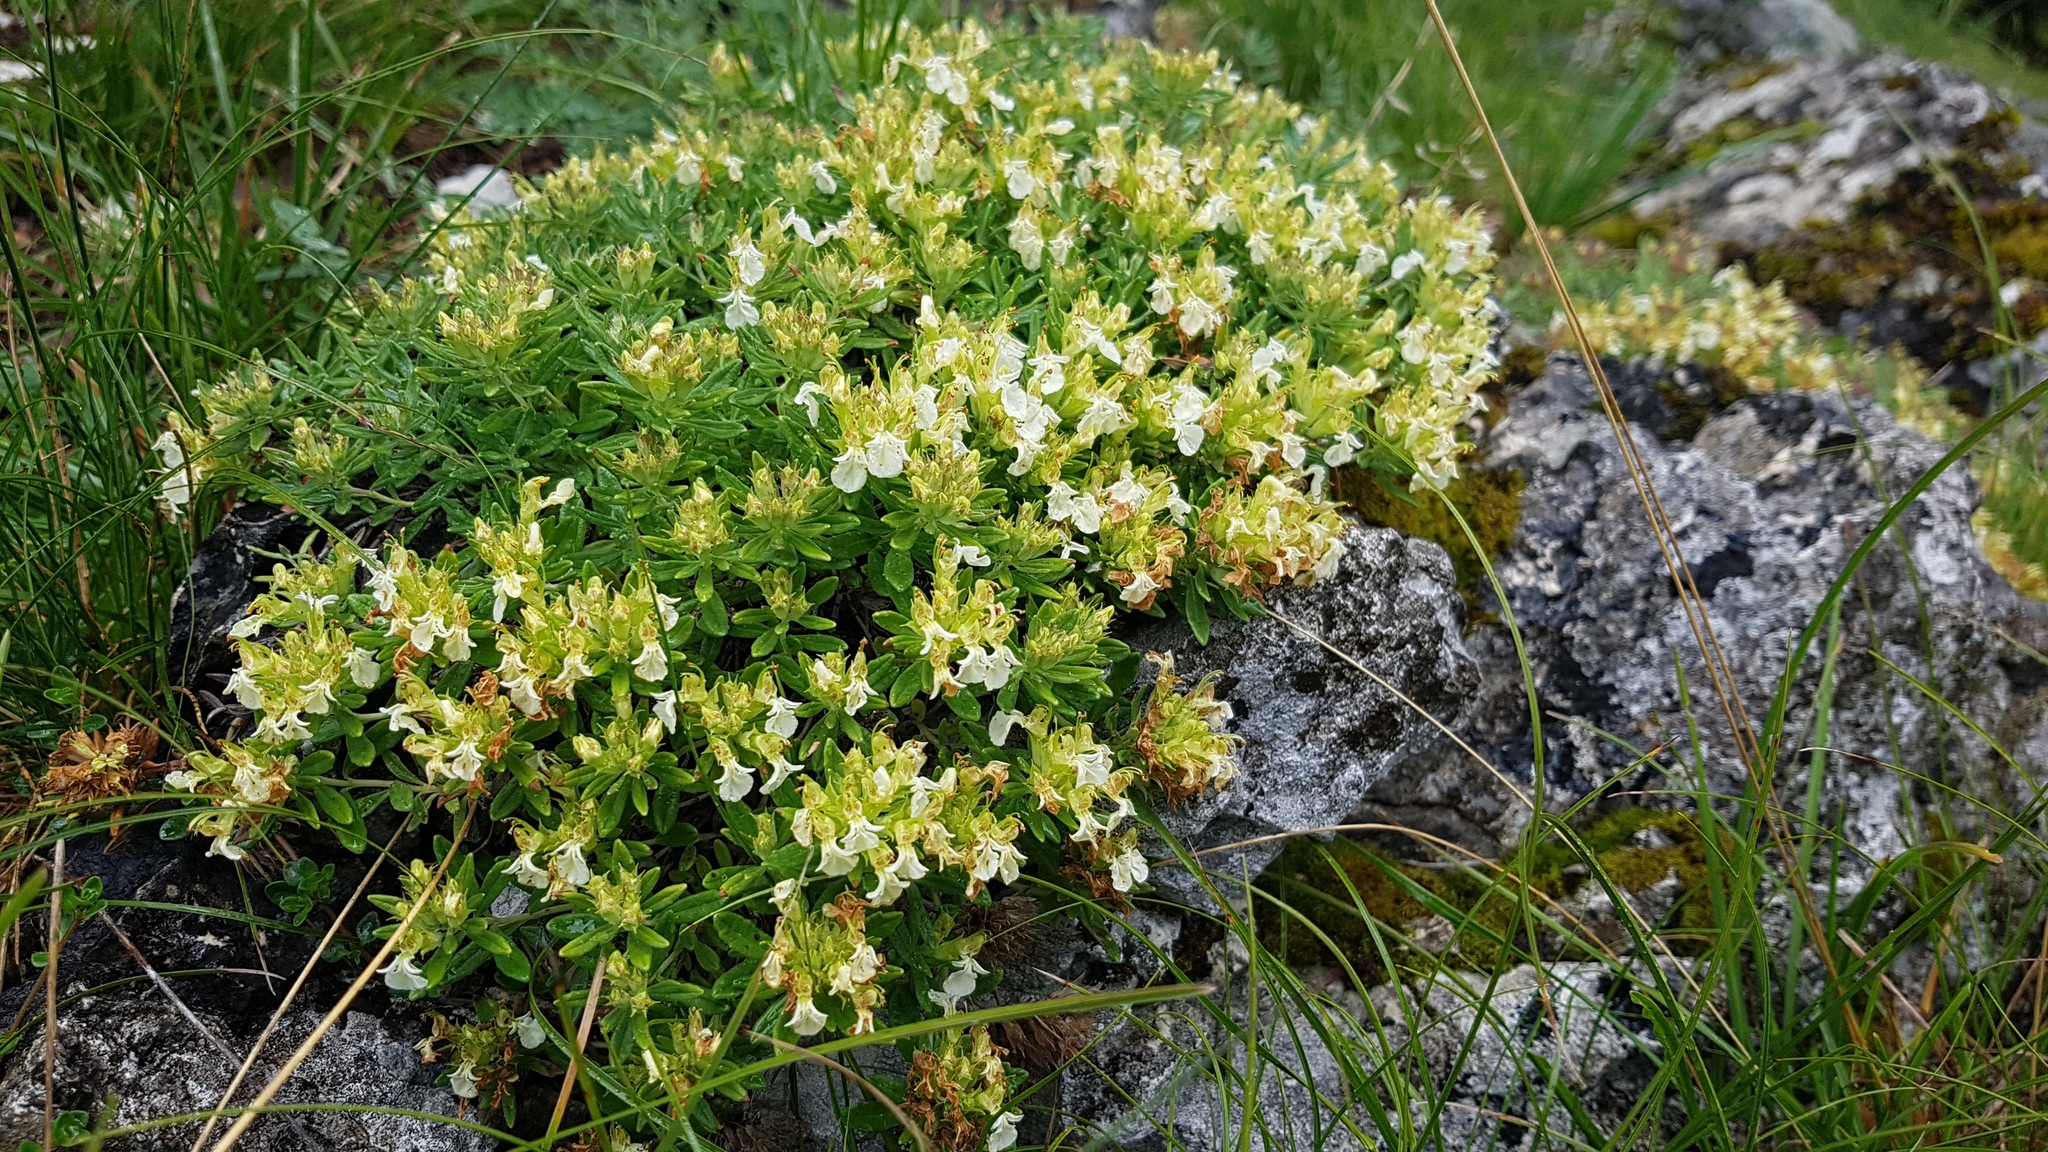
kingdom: Plantae
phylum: Tracheophyta
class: Magnoliopsida
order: Lamiales
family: Lamiaceae
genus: Teucrium
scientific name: Teucrium montanum
